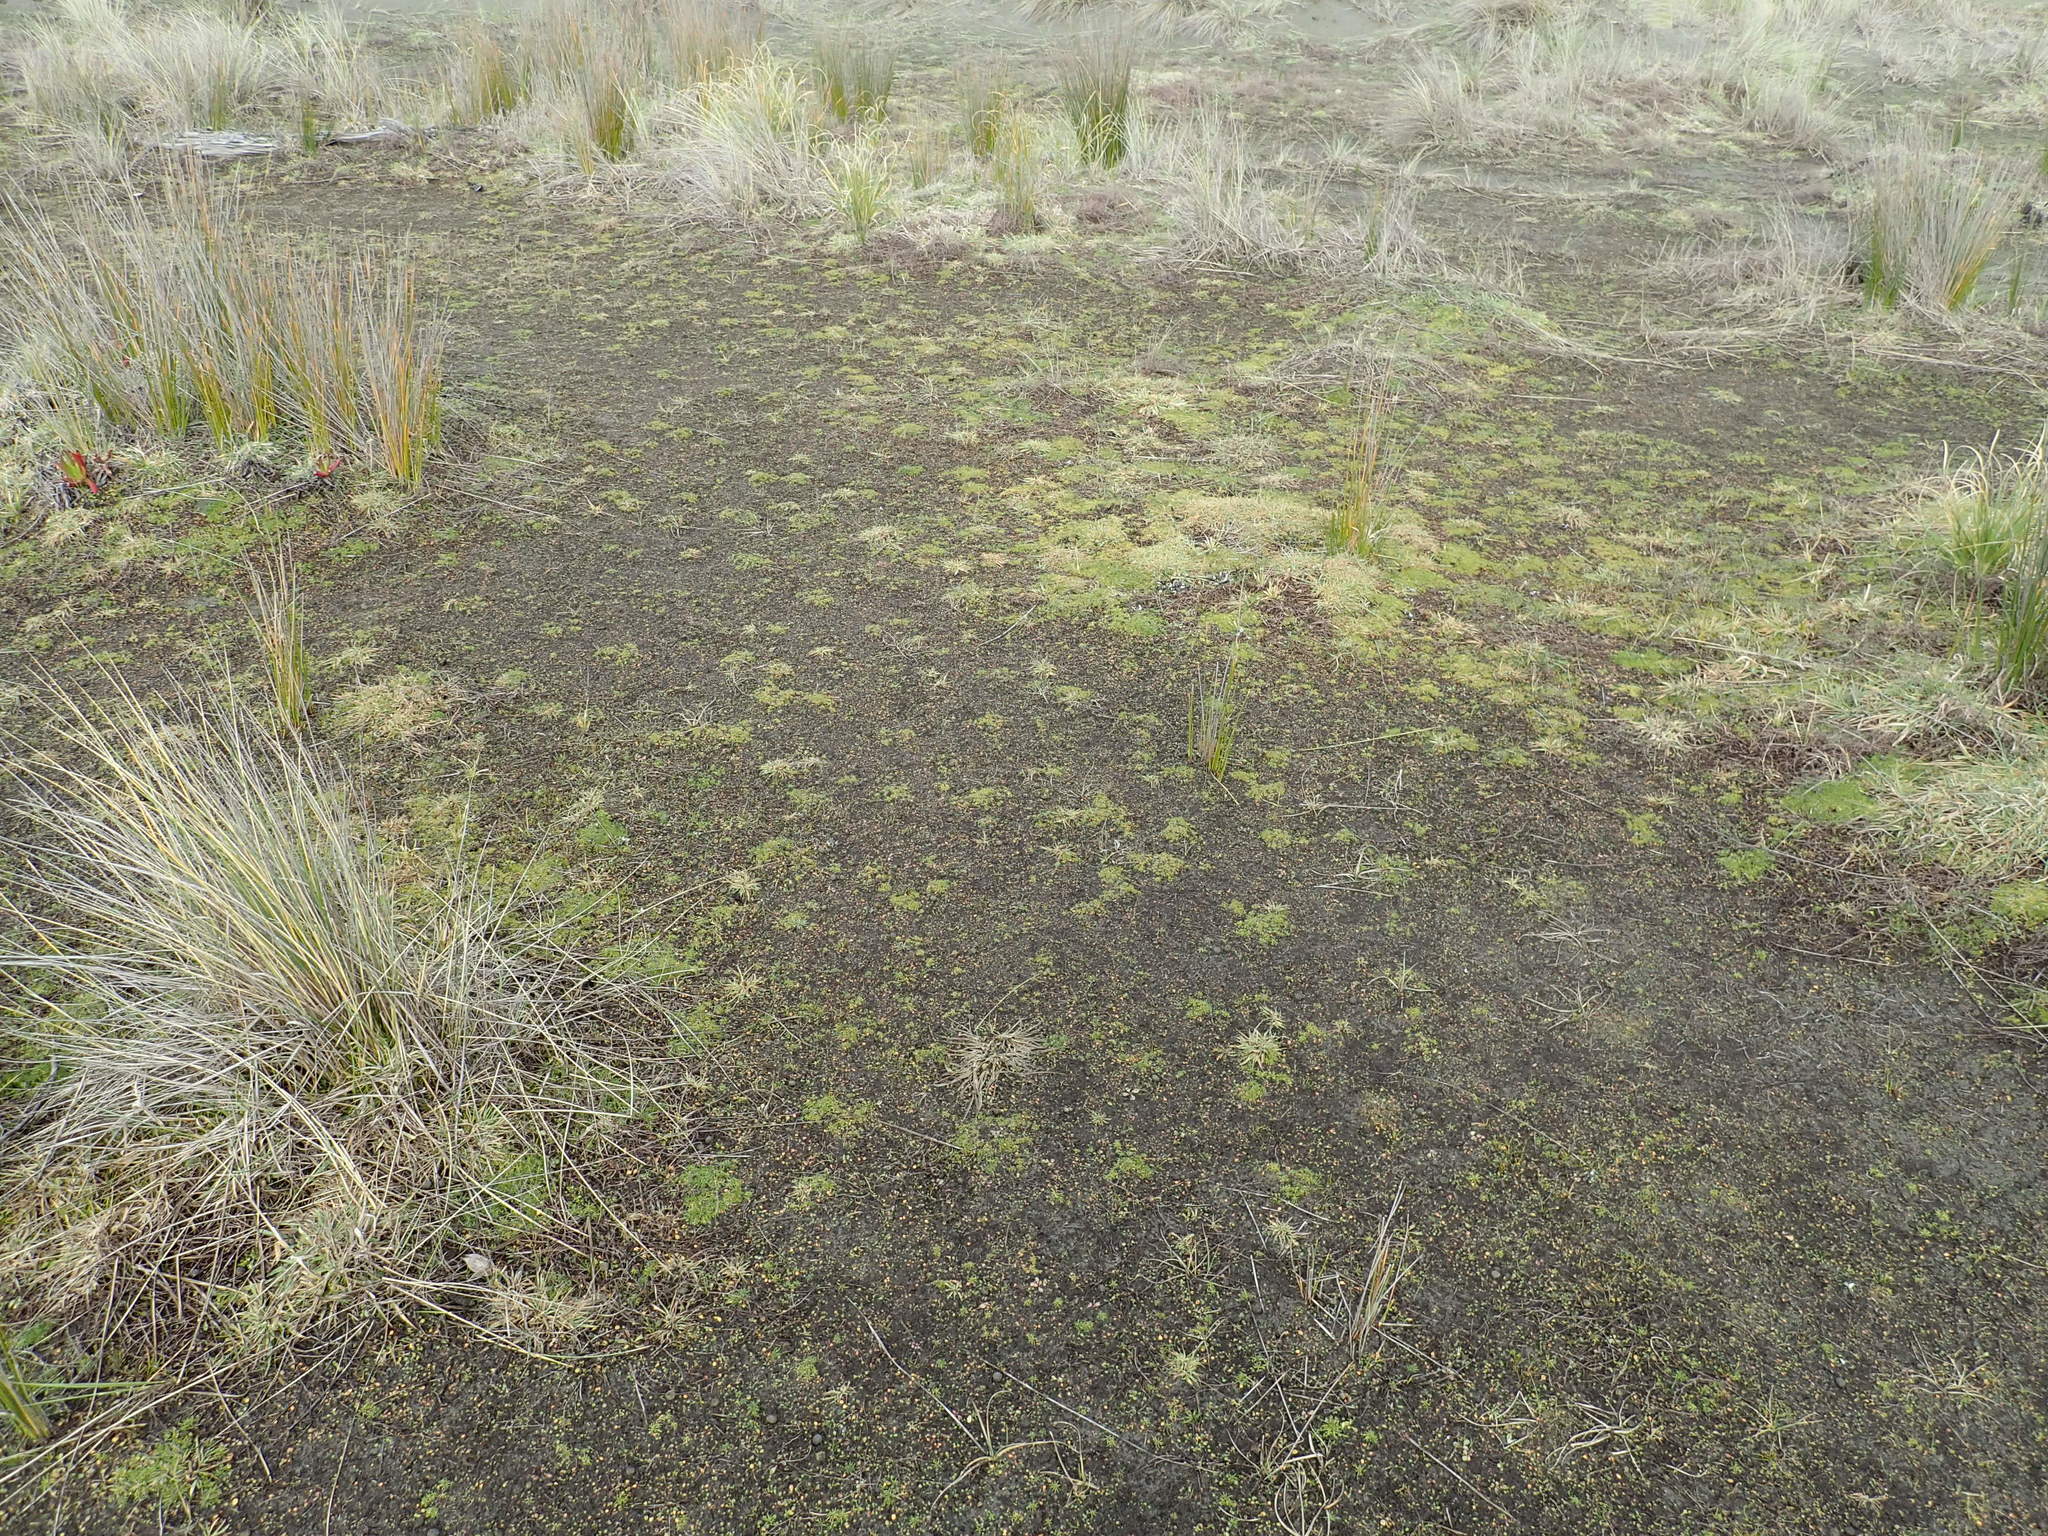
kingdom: Plantae
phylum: Tracheophyta
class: Magnoliopsida
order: Caryophyllales
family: Caryophyllaceae
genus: Sagina
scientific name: Sagina procumbens
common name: Procumbent pearlwort
